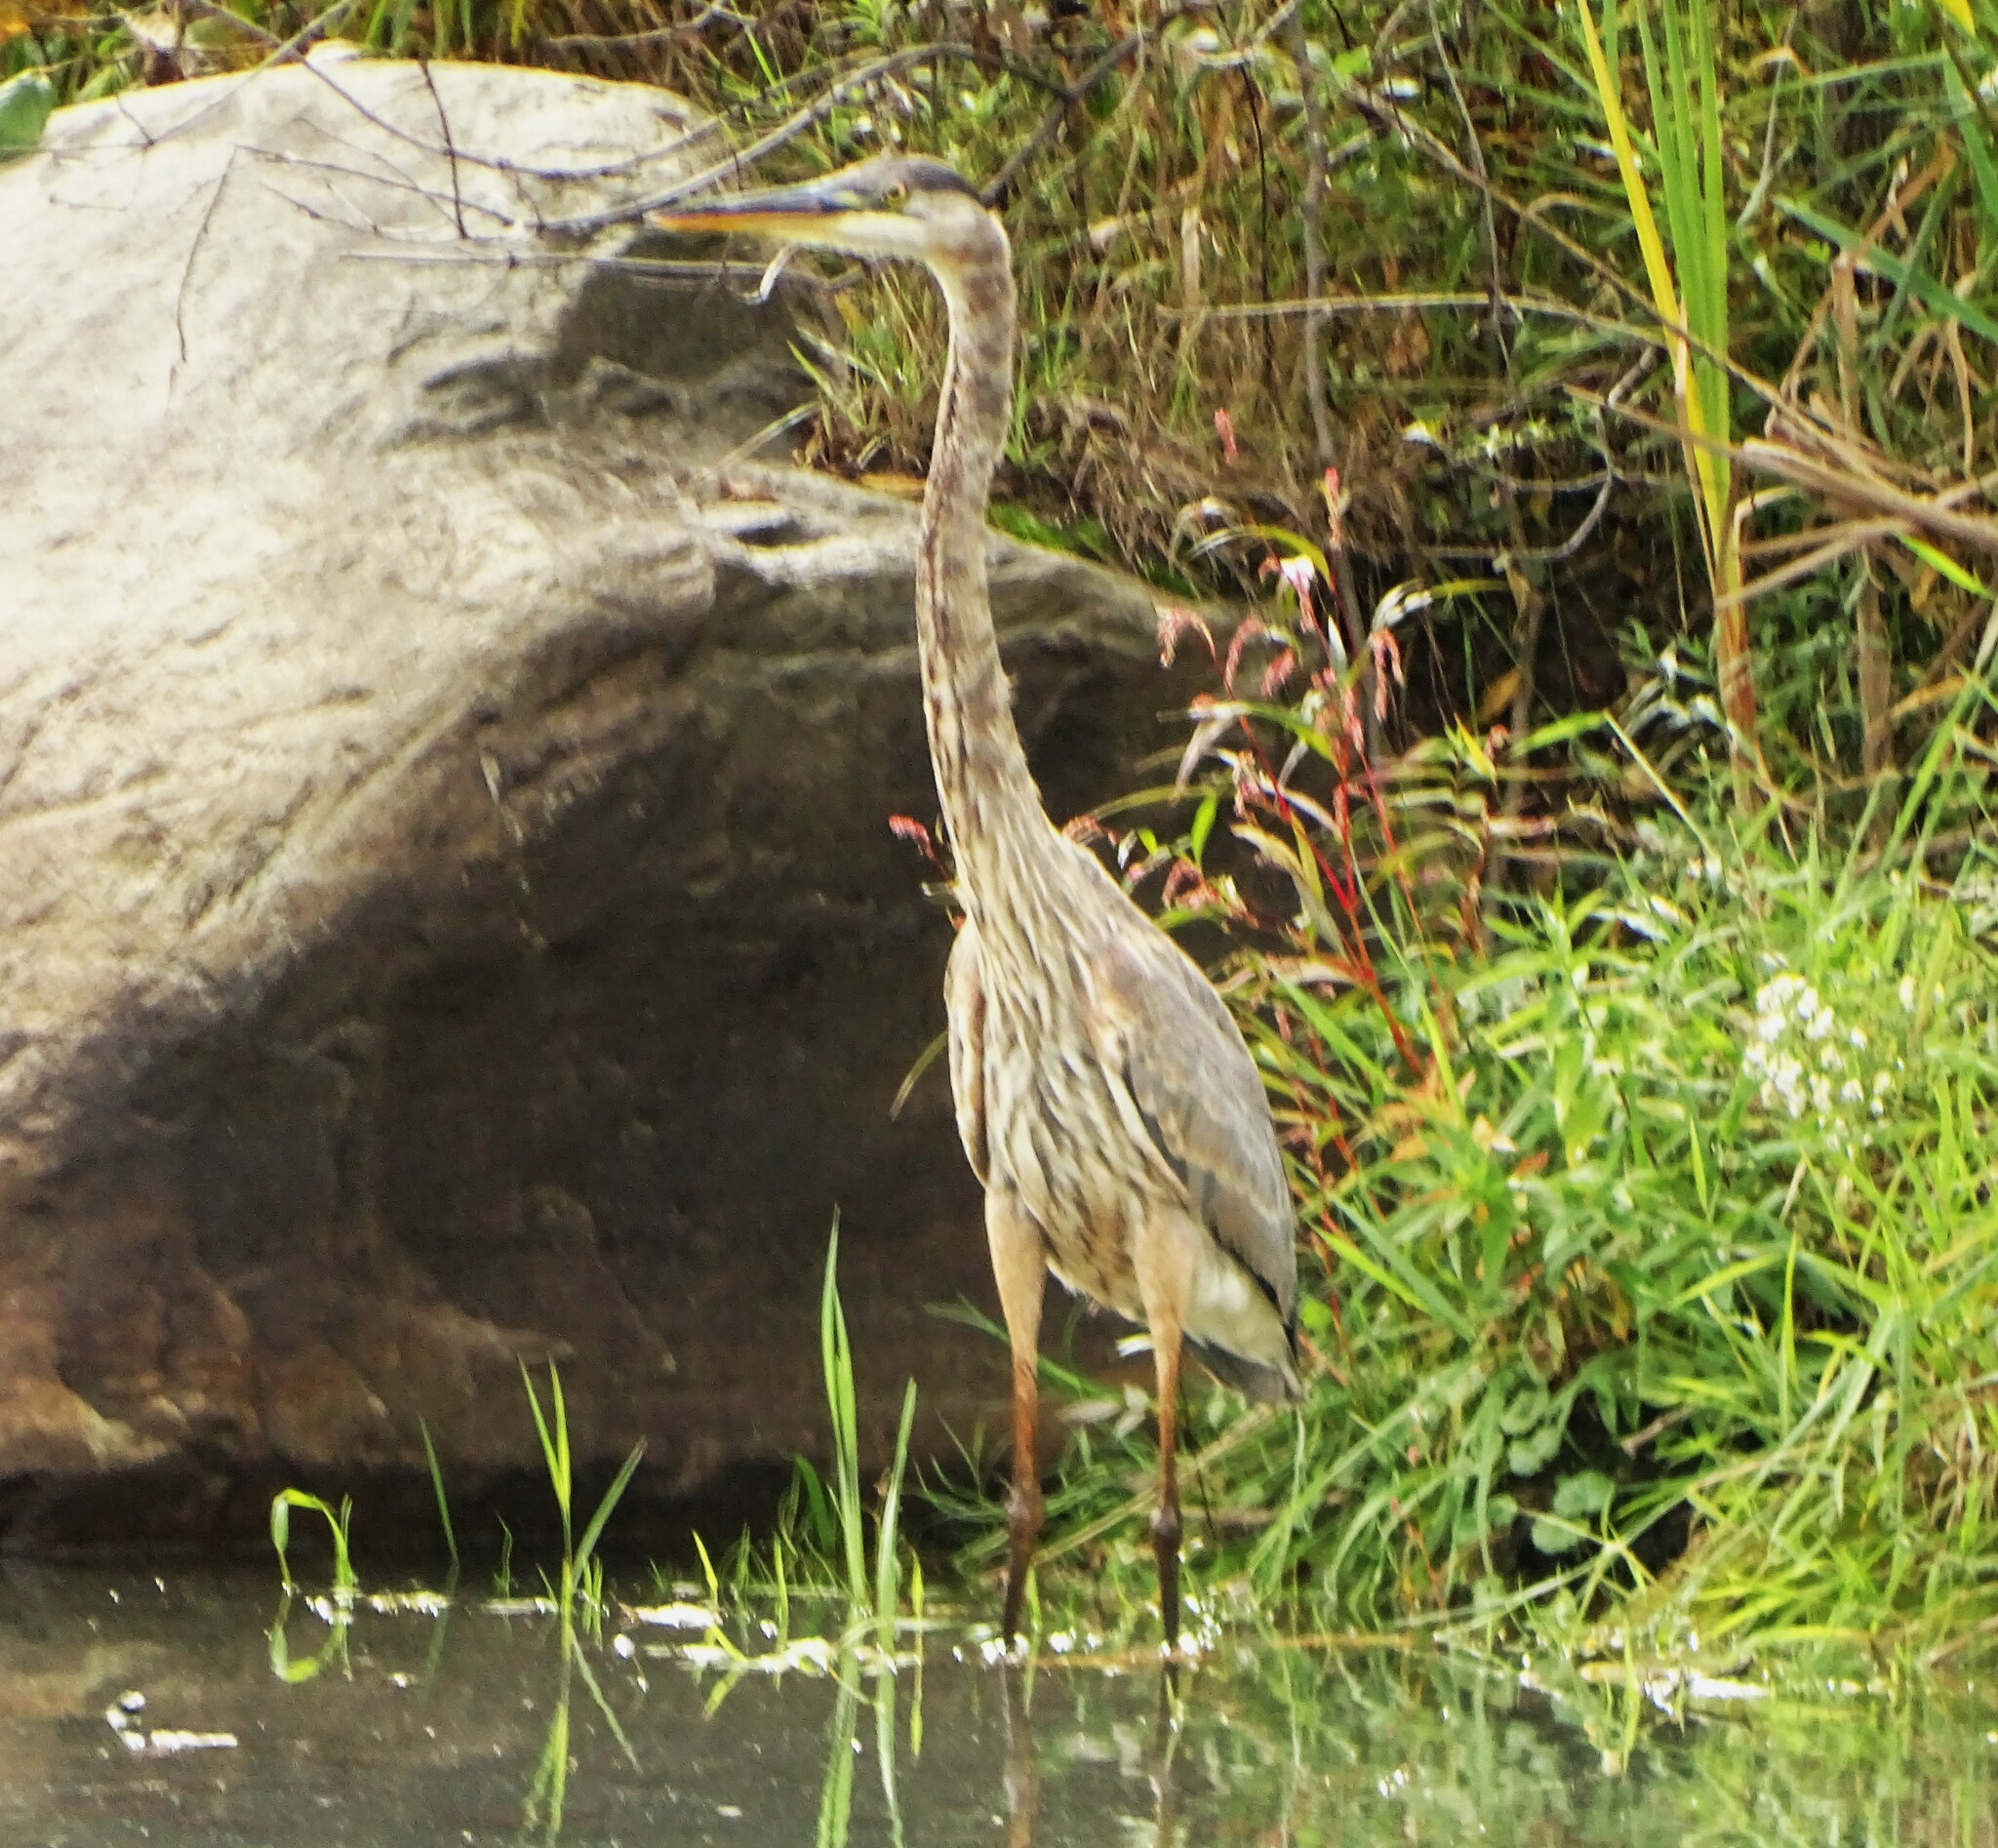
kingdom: Animalia
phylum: Chordata
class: Aves
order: Pelecaniformes
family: Ardeidae
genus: Ardea
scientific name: Ardea herodias
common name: Great blue heron
